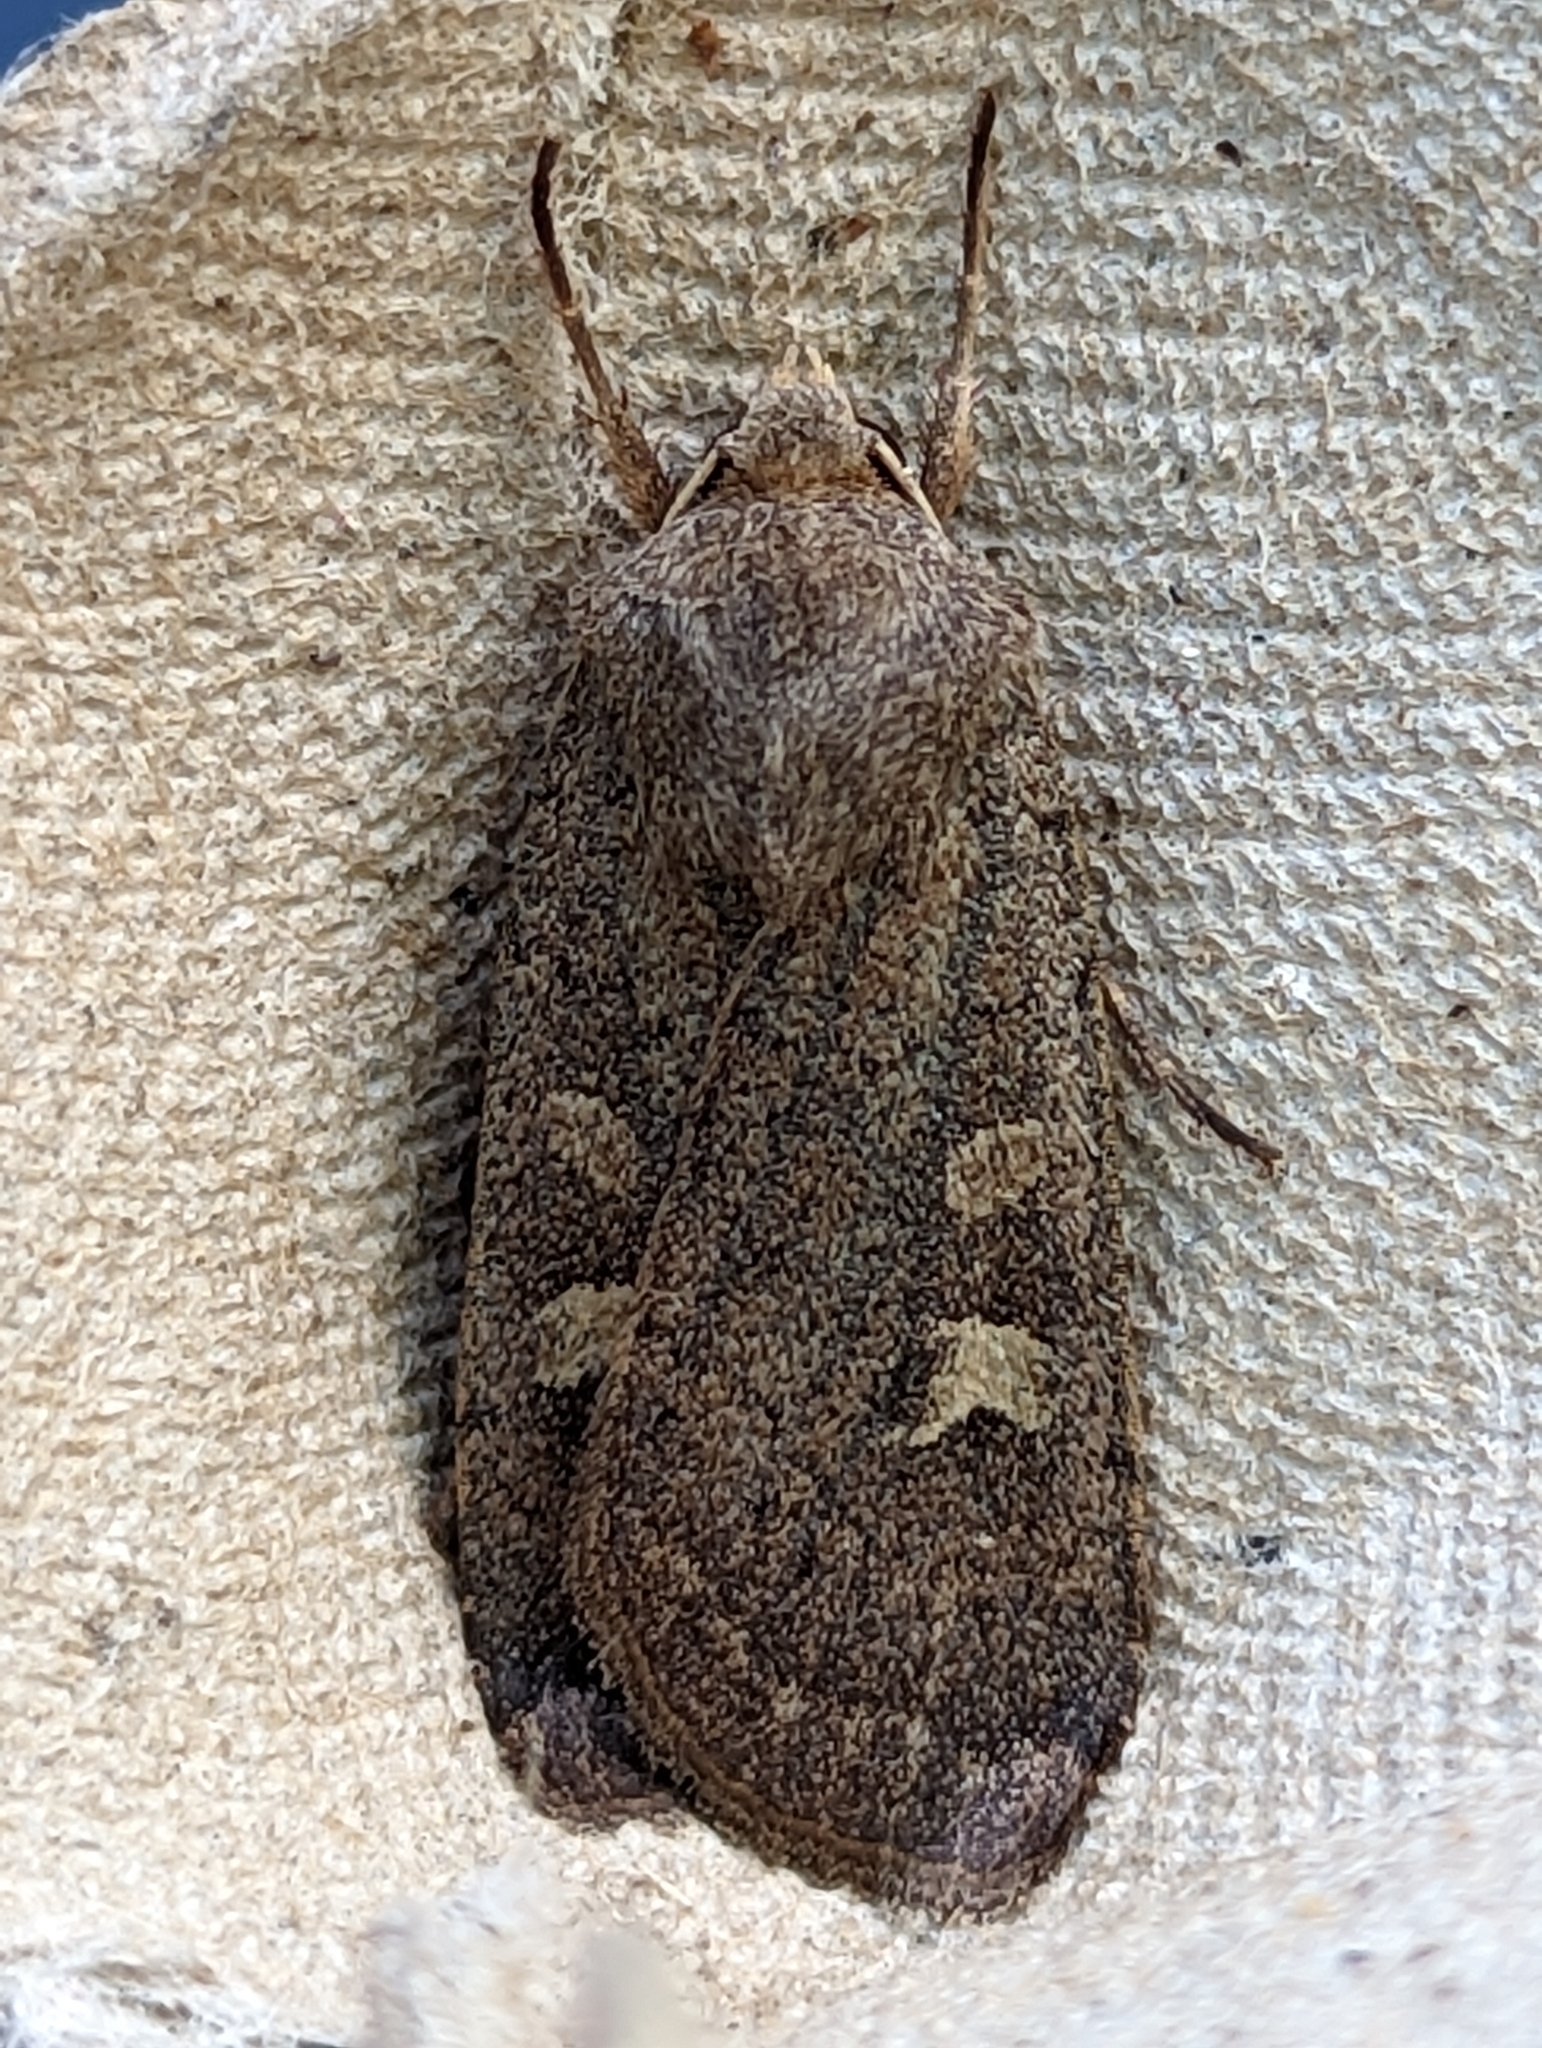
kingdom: Animalia
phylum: Arthropoda
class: Insecta
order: Lepidoptera
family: Noctuidae
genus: Xestia
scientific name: Xestia xanthographa
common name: Square-spot rustic
